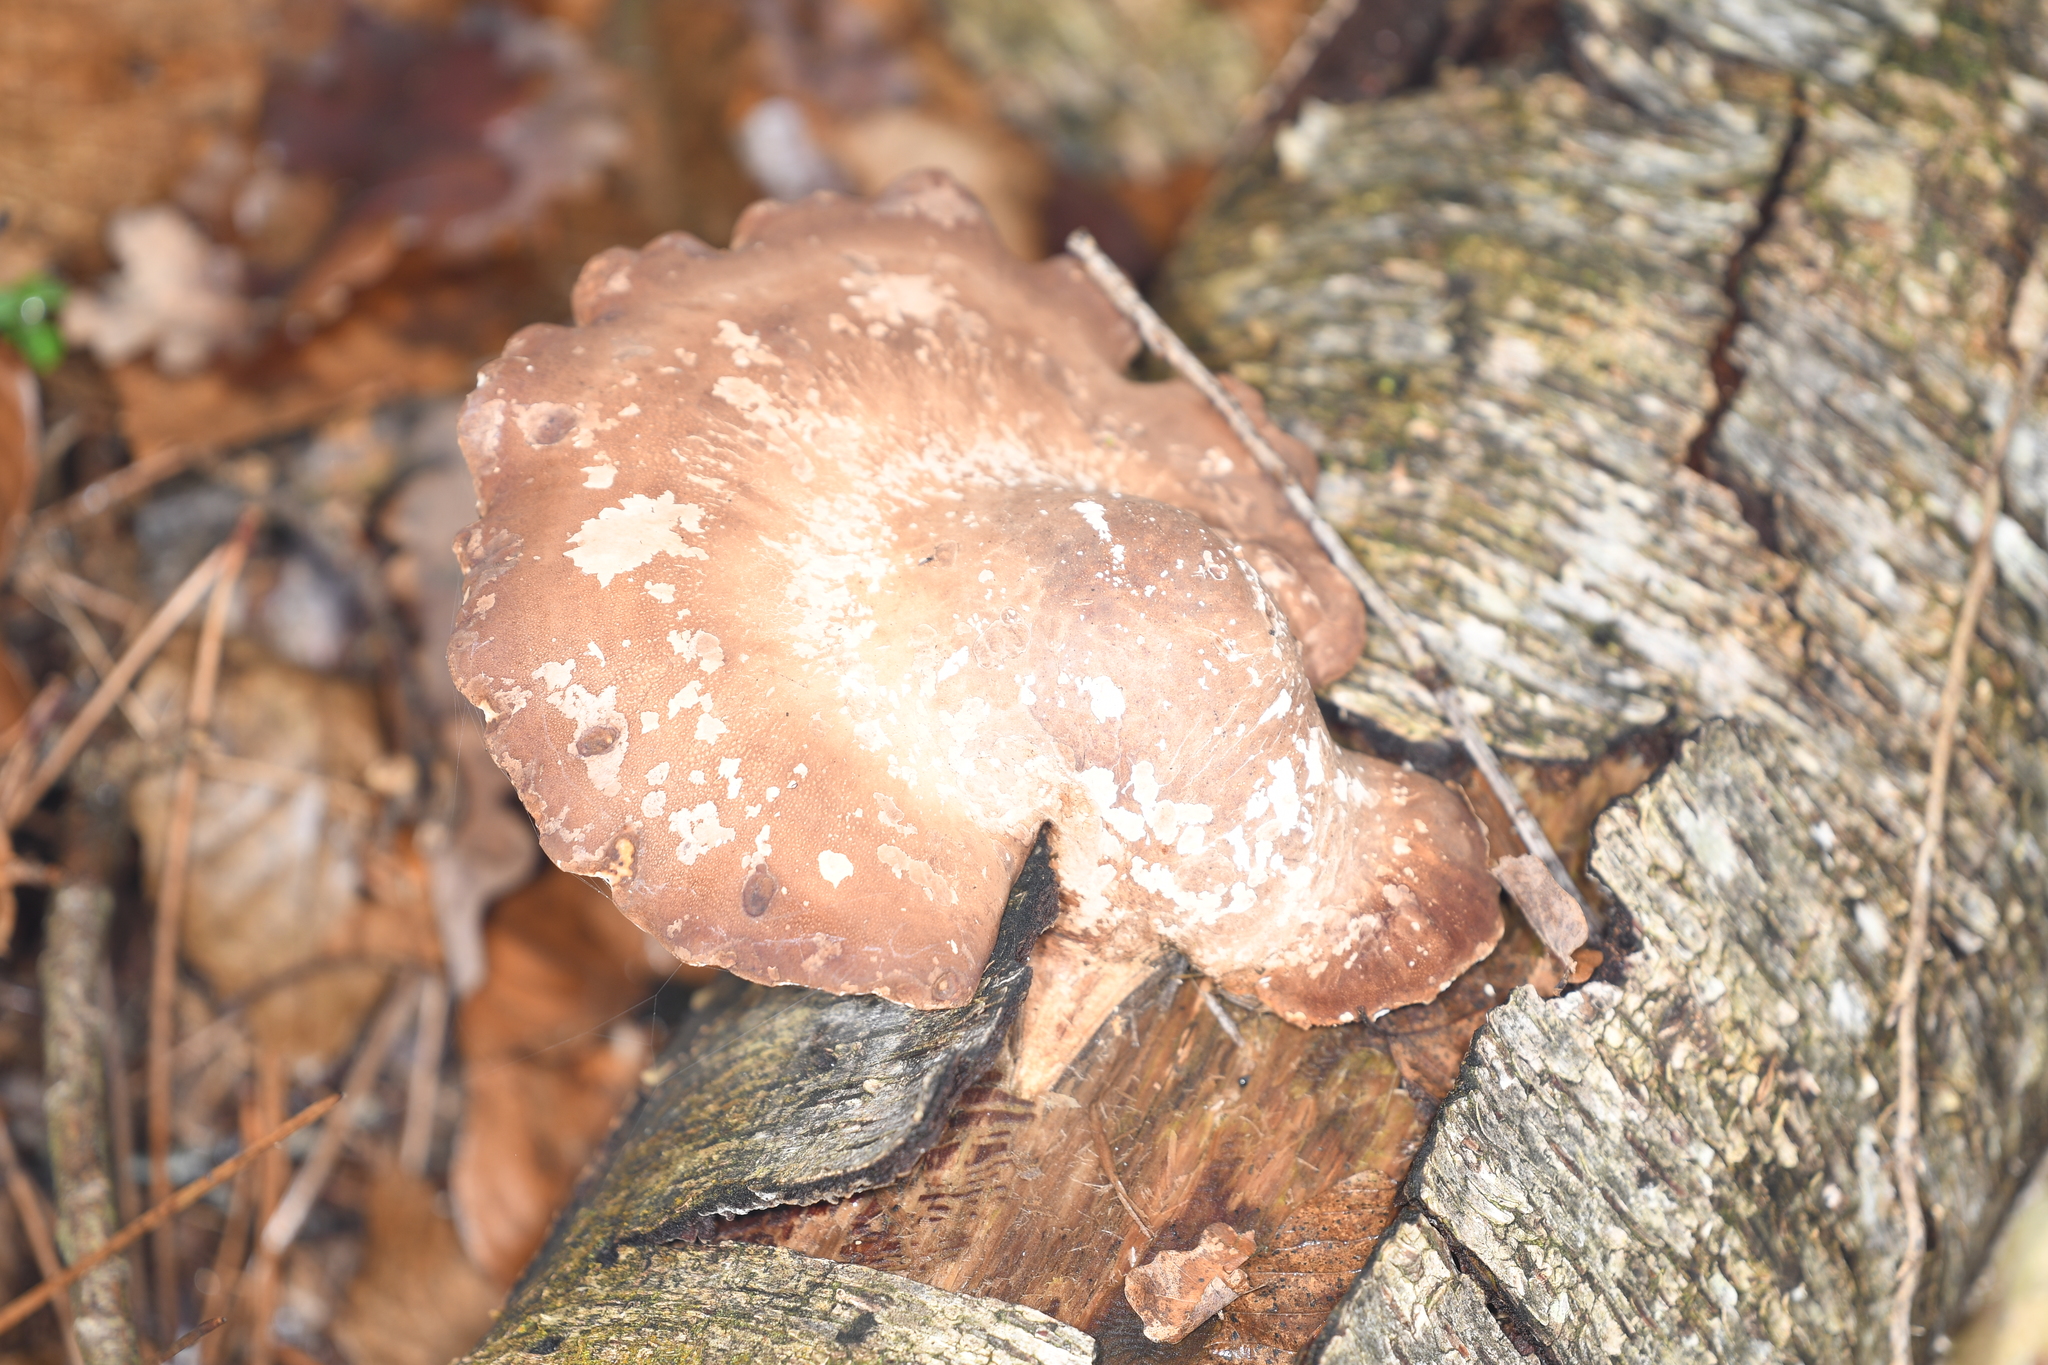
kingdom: Fungi
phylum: Basidiomycota
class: Agaricomycetes
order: Polyporales
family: Fomitopsidaceae
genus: Fomitopsis
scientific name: Fomitopsis betulina
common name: Birch polypore
